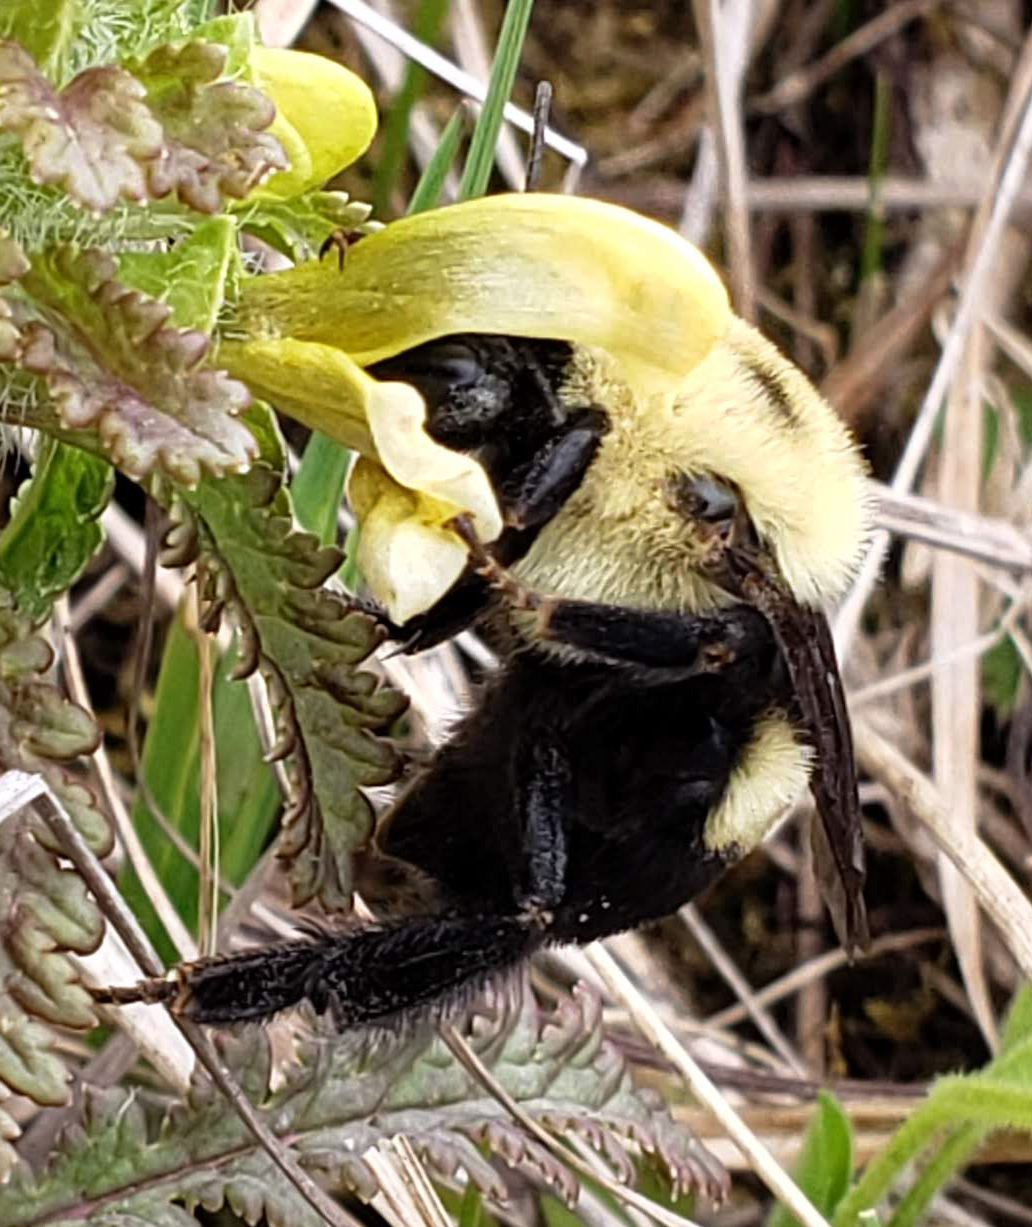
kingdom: Animalia
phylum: Arthropoda
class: Insecta
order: Hymenoptera
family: Apidae
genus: Bombus
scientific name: Bombus griseocollis
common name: Brown-belted bumble bee
